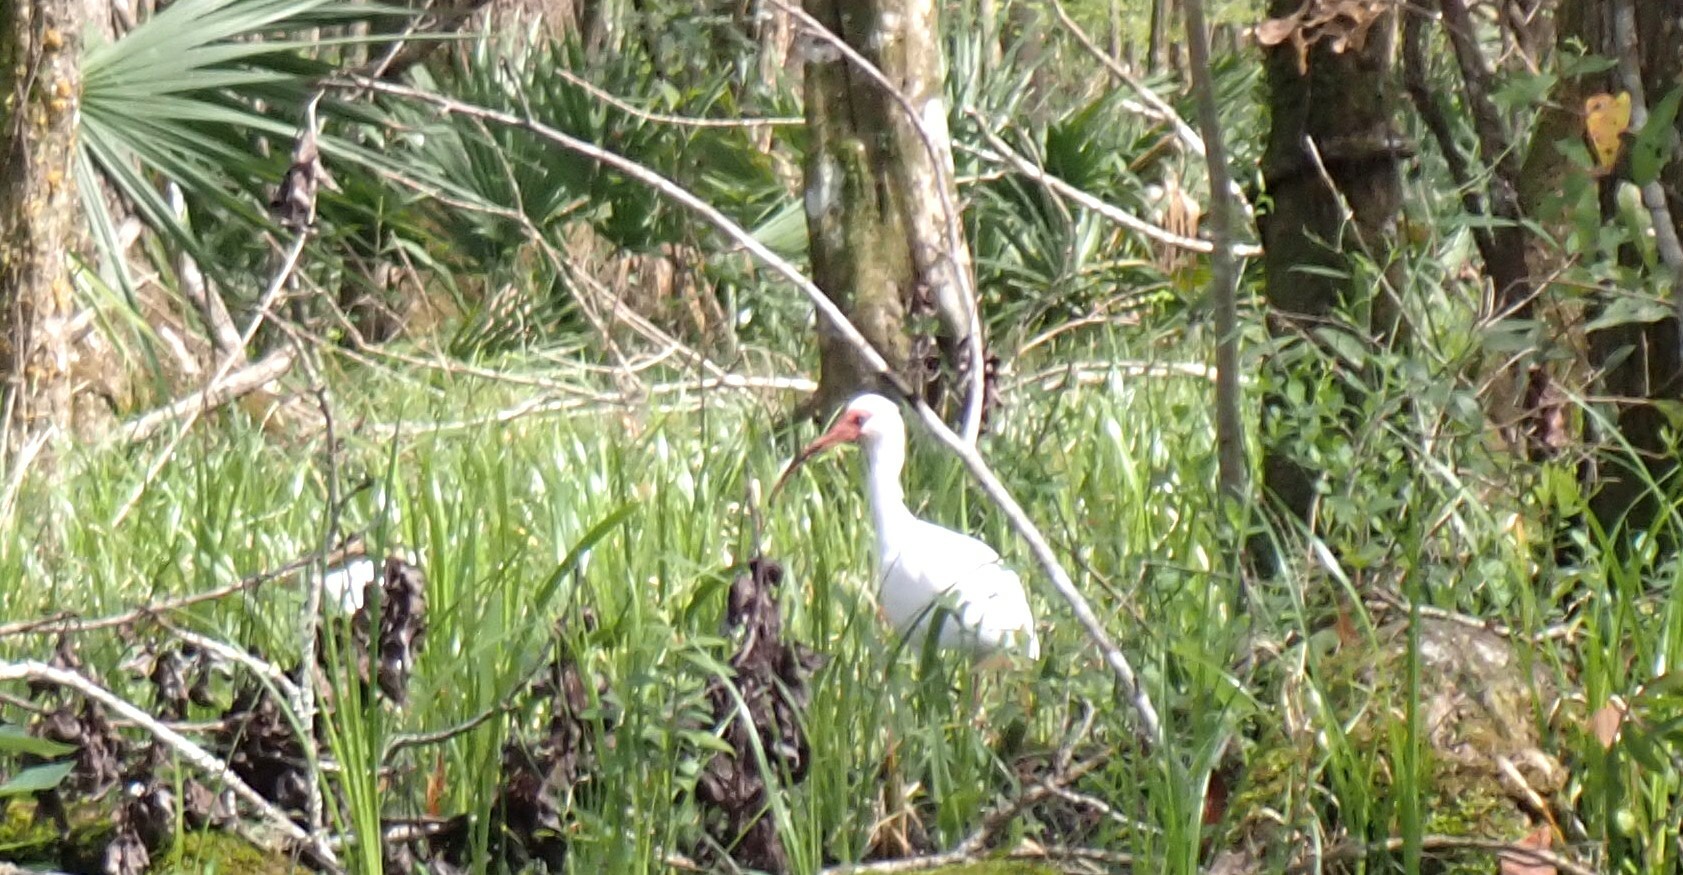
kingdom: Animalia
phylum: Chordata
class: Aves
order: Pelecaniformes
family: Threskiornithidae
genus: Eudocimus
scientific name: Eudocimus albus
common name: White ibis
